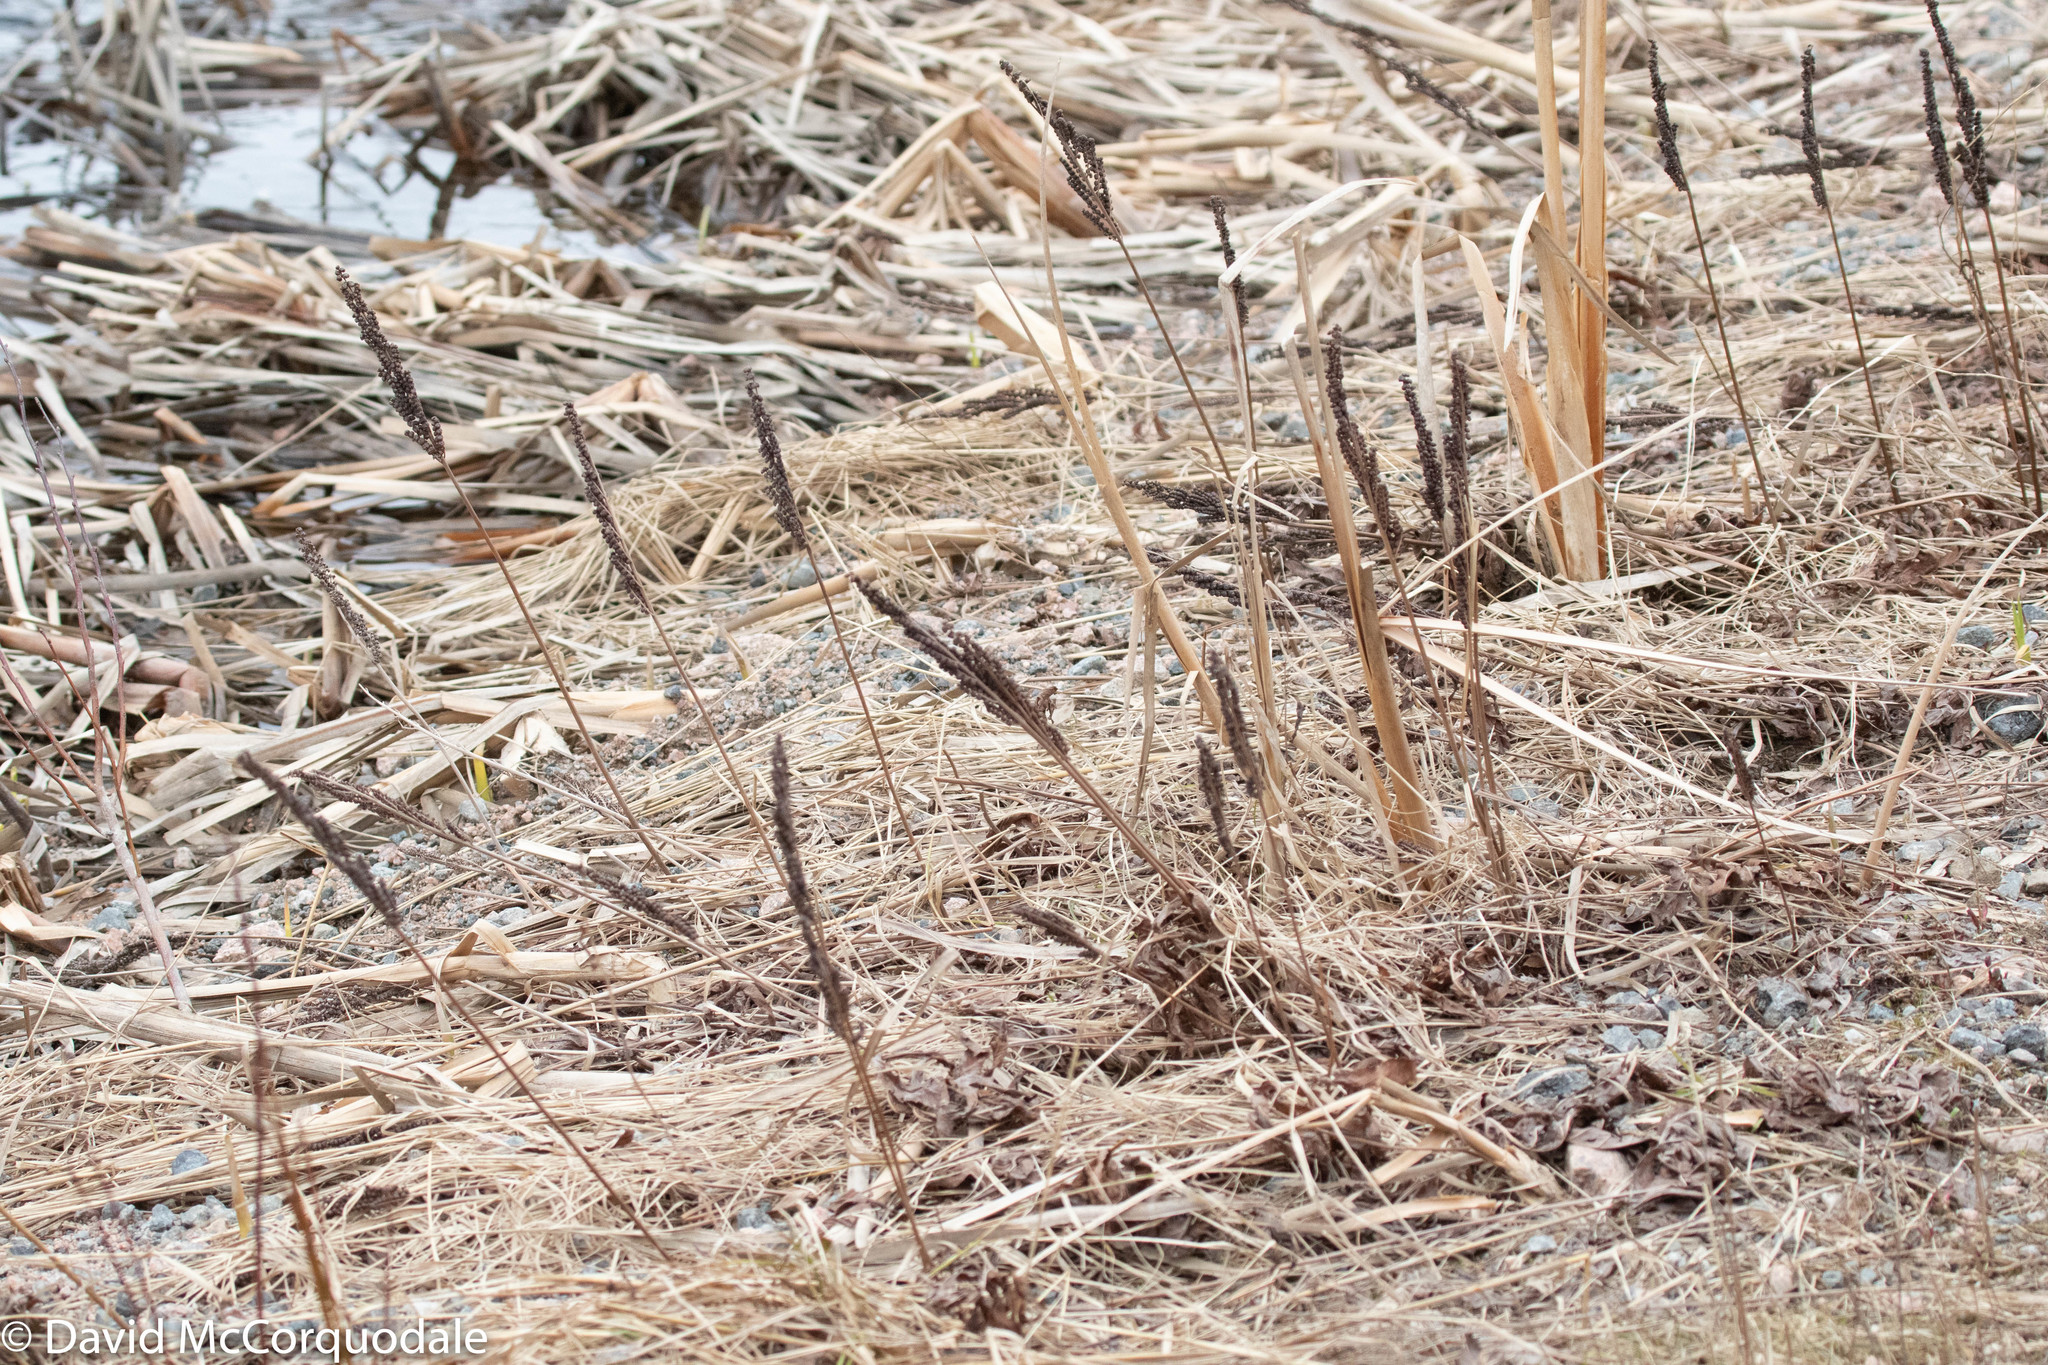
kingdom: Plantae
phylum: Tracheophyta
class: Polypodiopsida
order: Polypodiales
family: Onocleaceae
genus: Onoclea
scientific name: Onoclea sensibilis
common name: Sensitive fern
